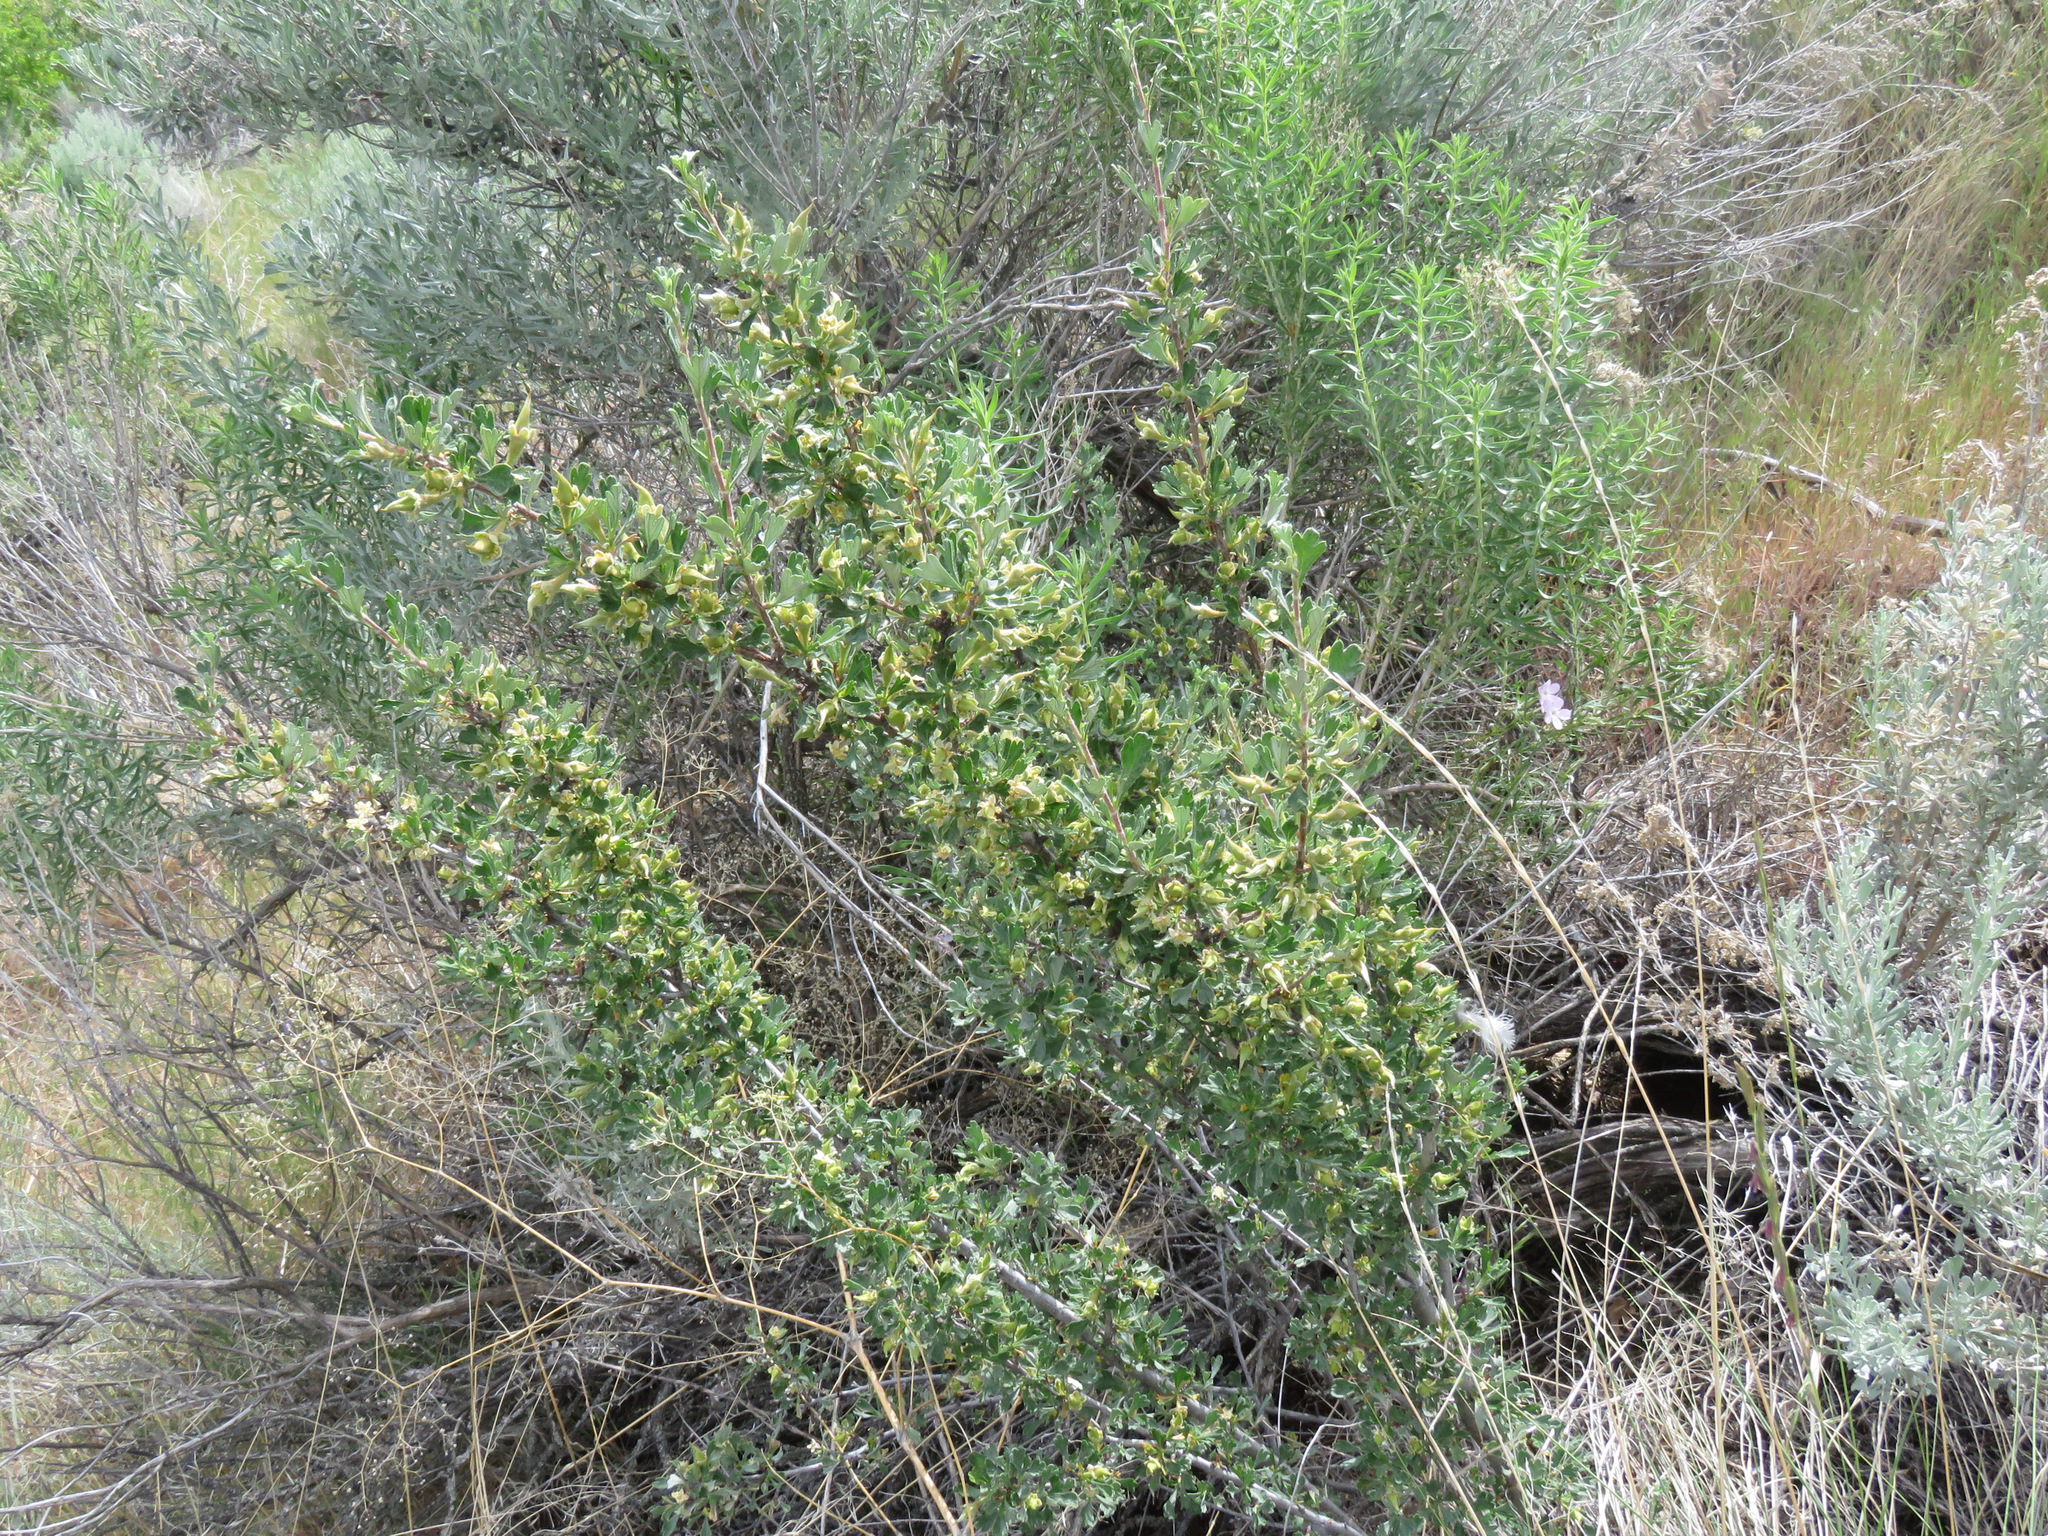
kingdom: Plantae
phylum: Tracheophyta
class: Magnoliopsida
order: Rosales
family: Rosaceae
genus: Purshia
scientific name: Purshia tridentata
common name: Antelope bitterbrush
